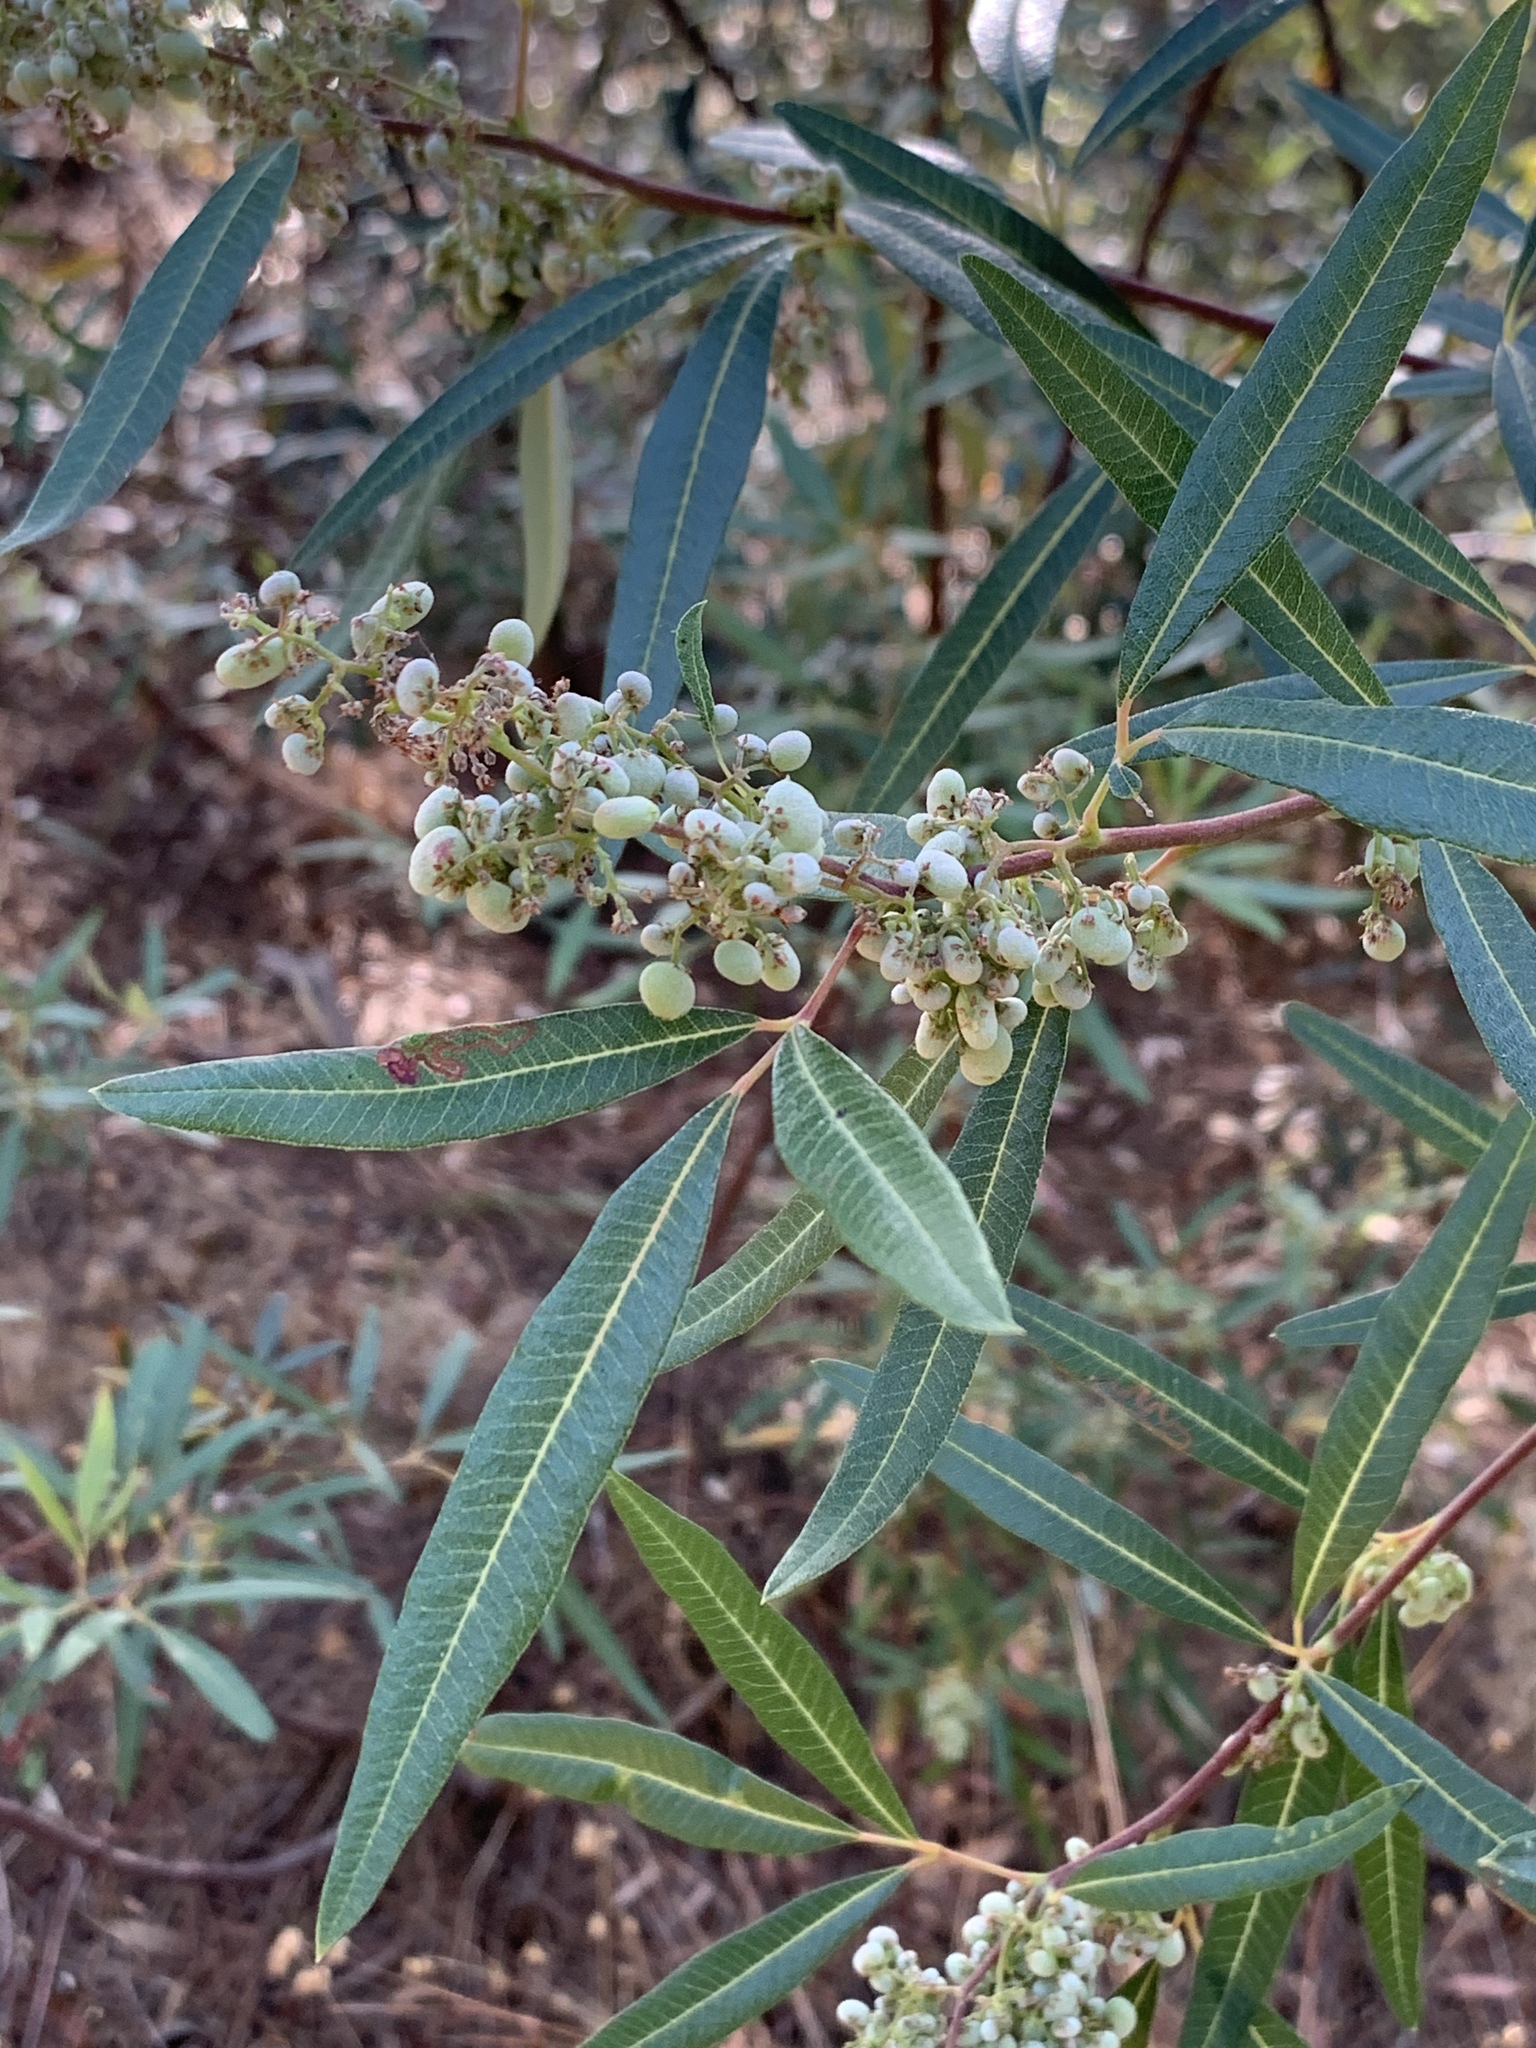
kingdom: Plantae
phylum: Tracheophyta
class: Magnoliopsida
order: Sapindales
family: Anacardiaceae
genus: Searsia
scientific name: Searsia angustifolia
